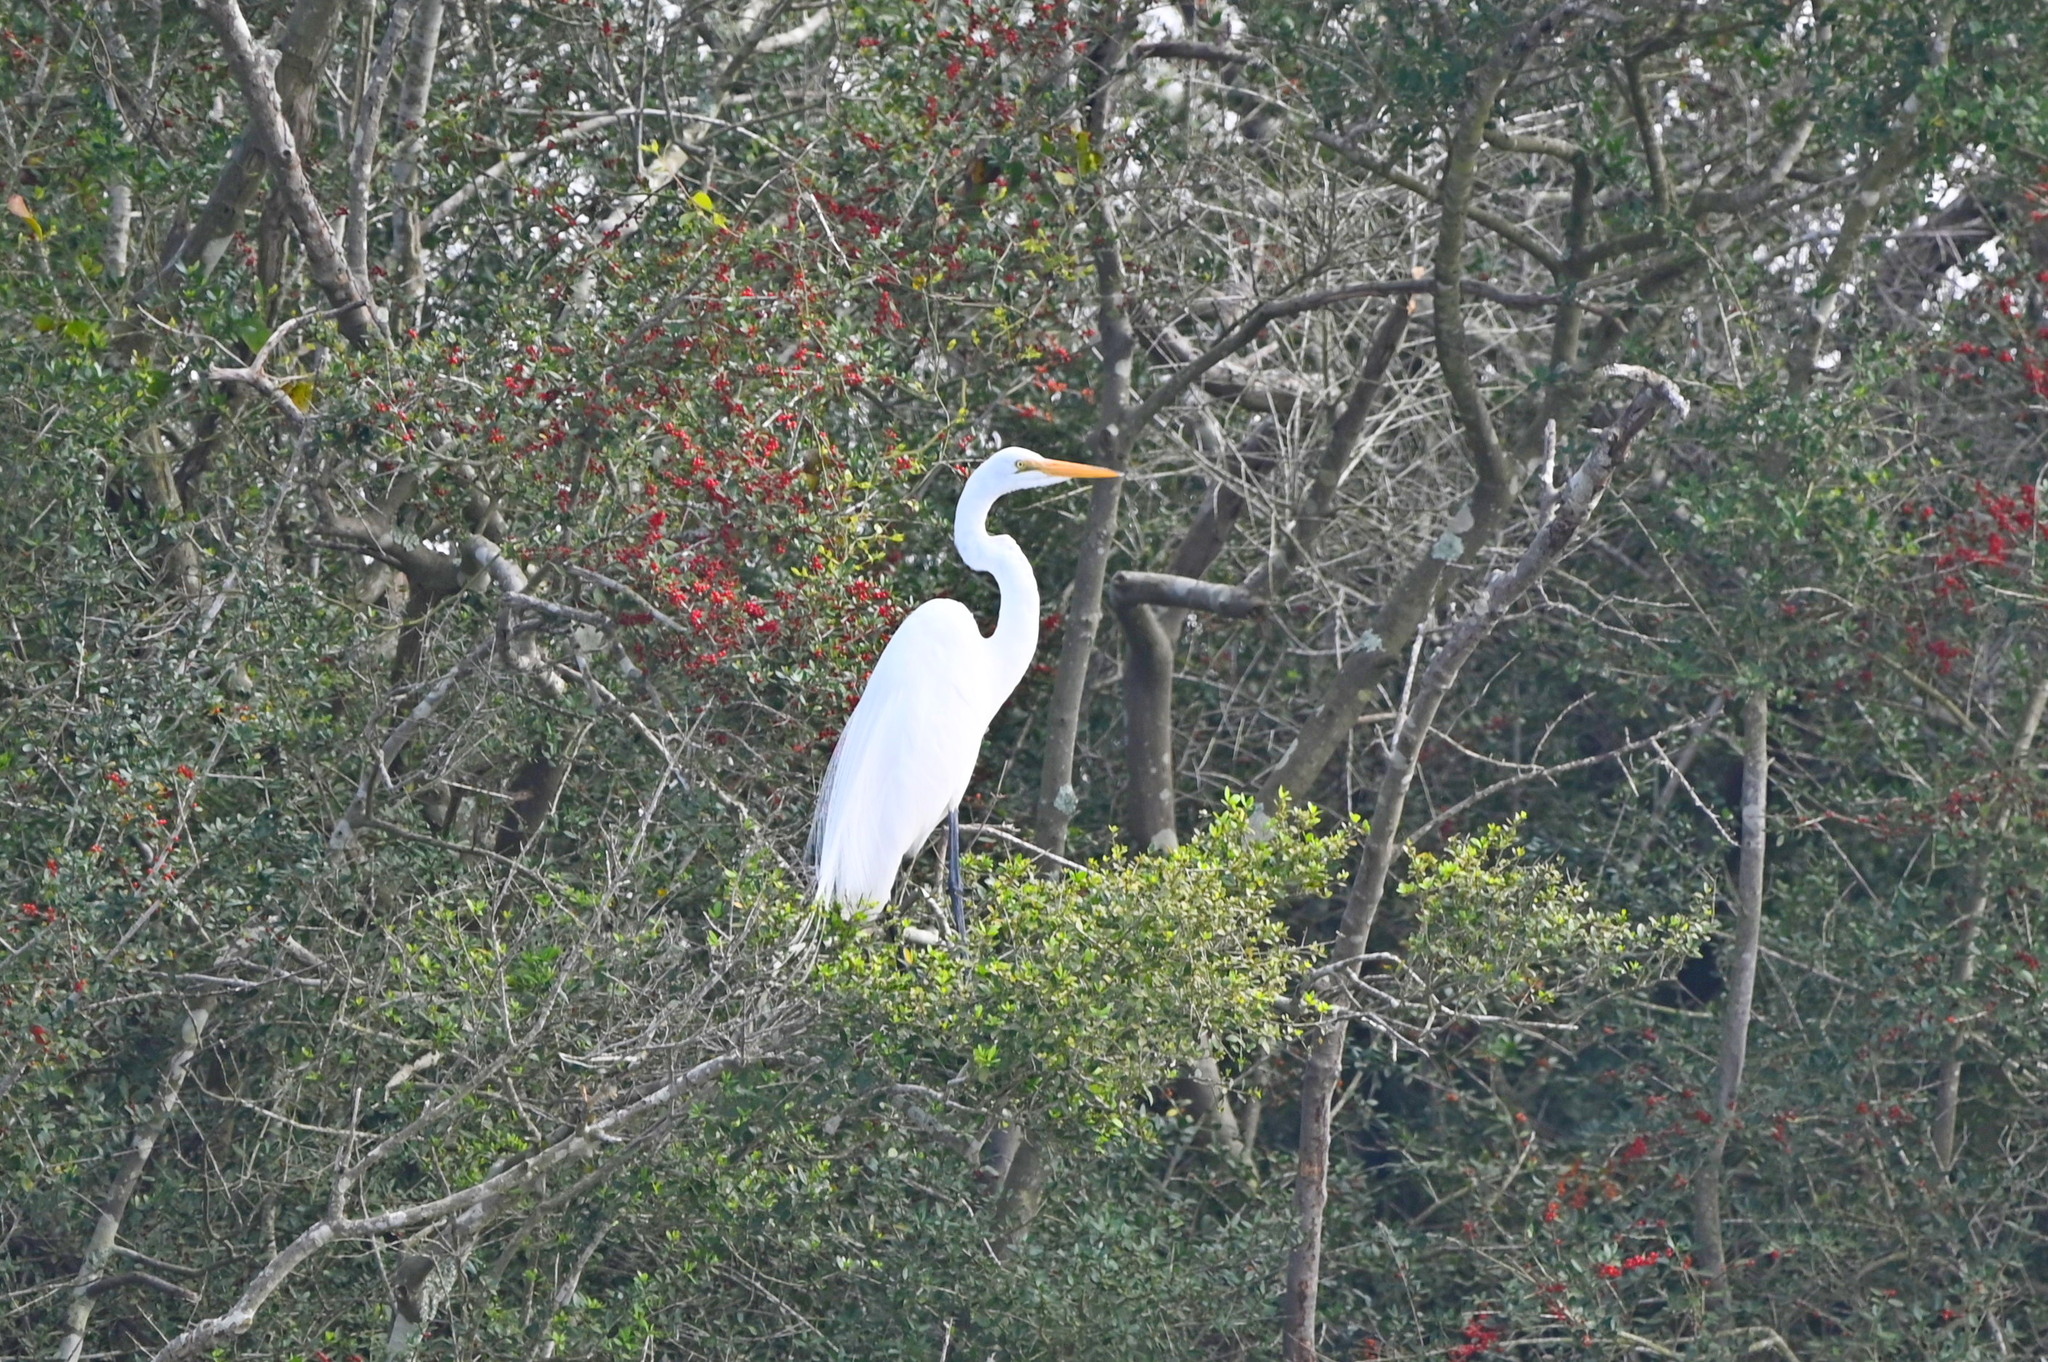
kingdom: Animalia
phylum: Chordata
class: Aves
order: Pelecaniformes
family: Ardeidae
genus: Ardea
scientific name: Ardea alba
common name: Great egret
